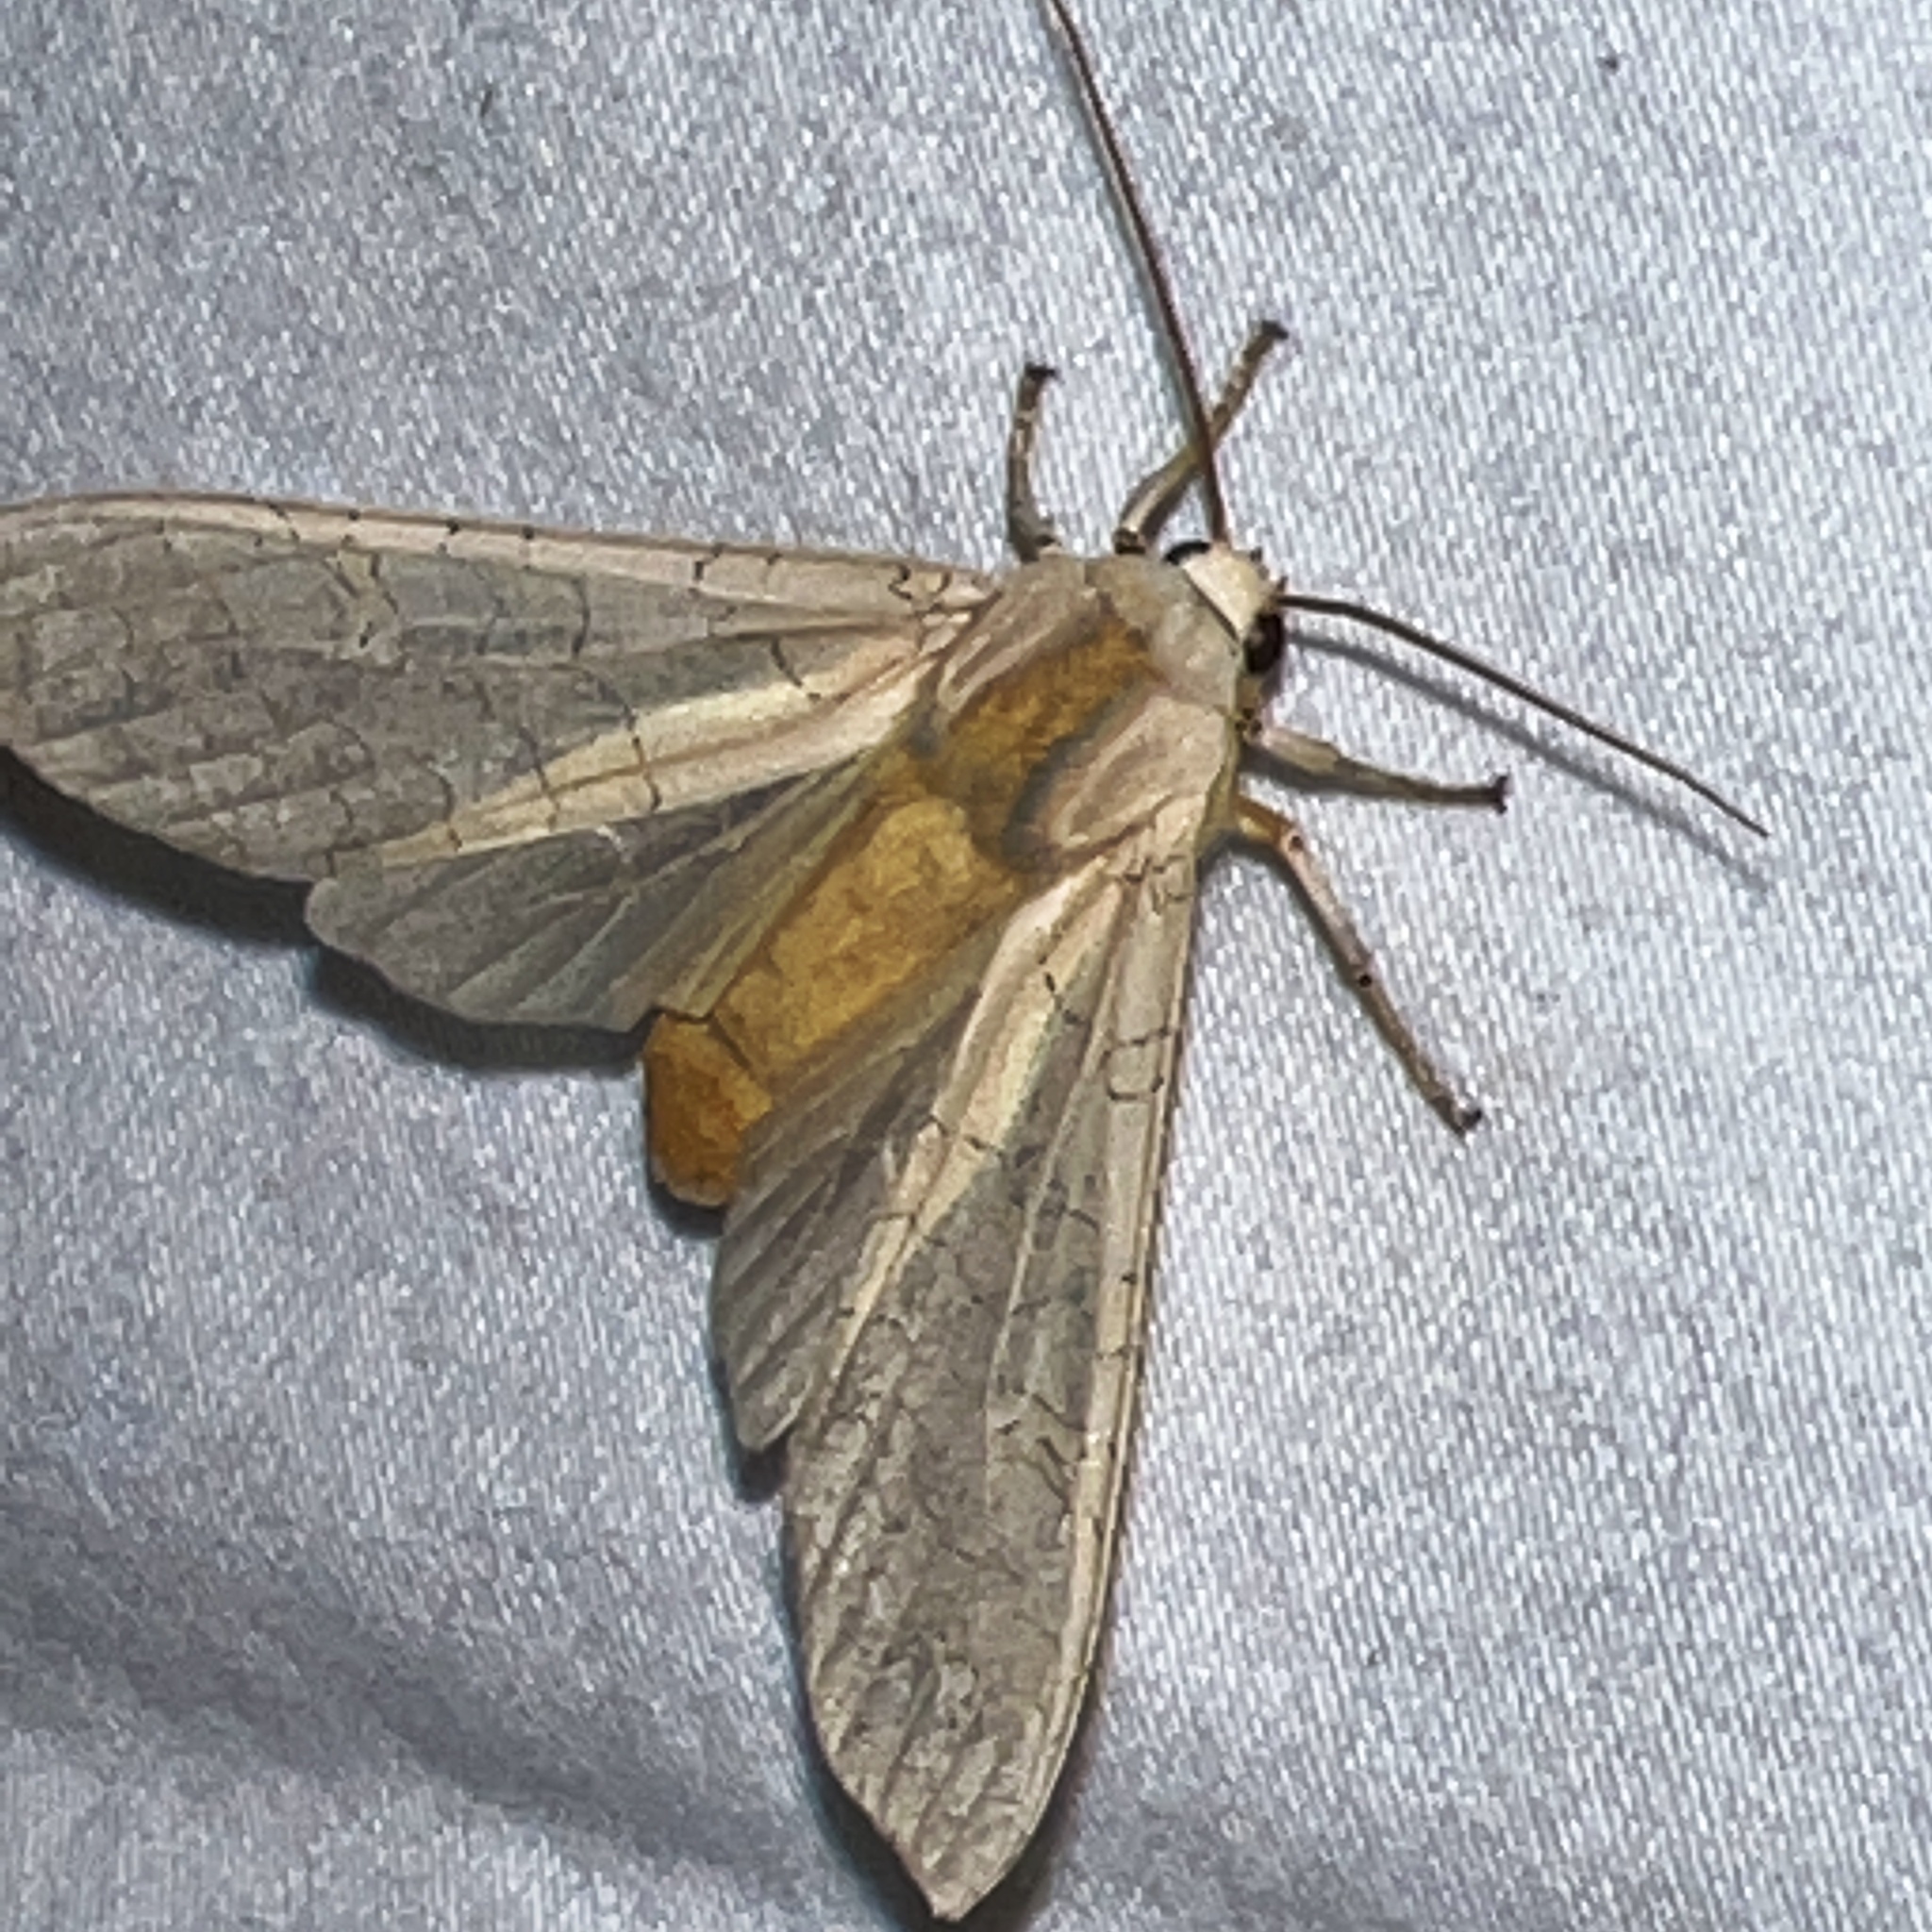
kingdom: Animalia
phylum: Arthropoda
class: Insecta
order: Lepidoptera
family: Erebidae
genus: Halysidota
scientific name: Halysidota
